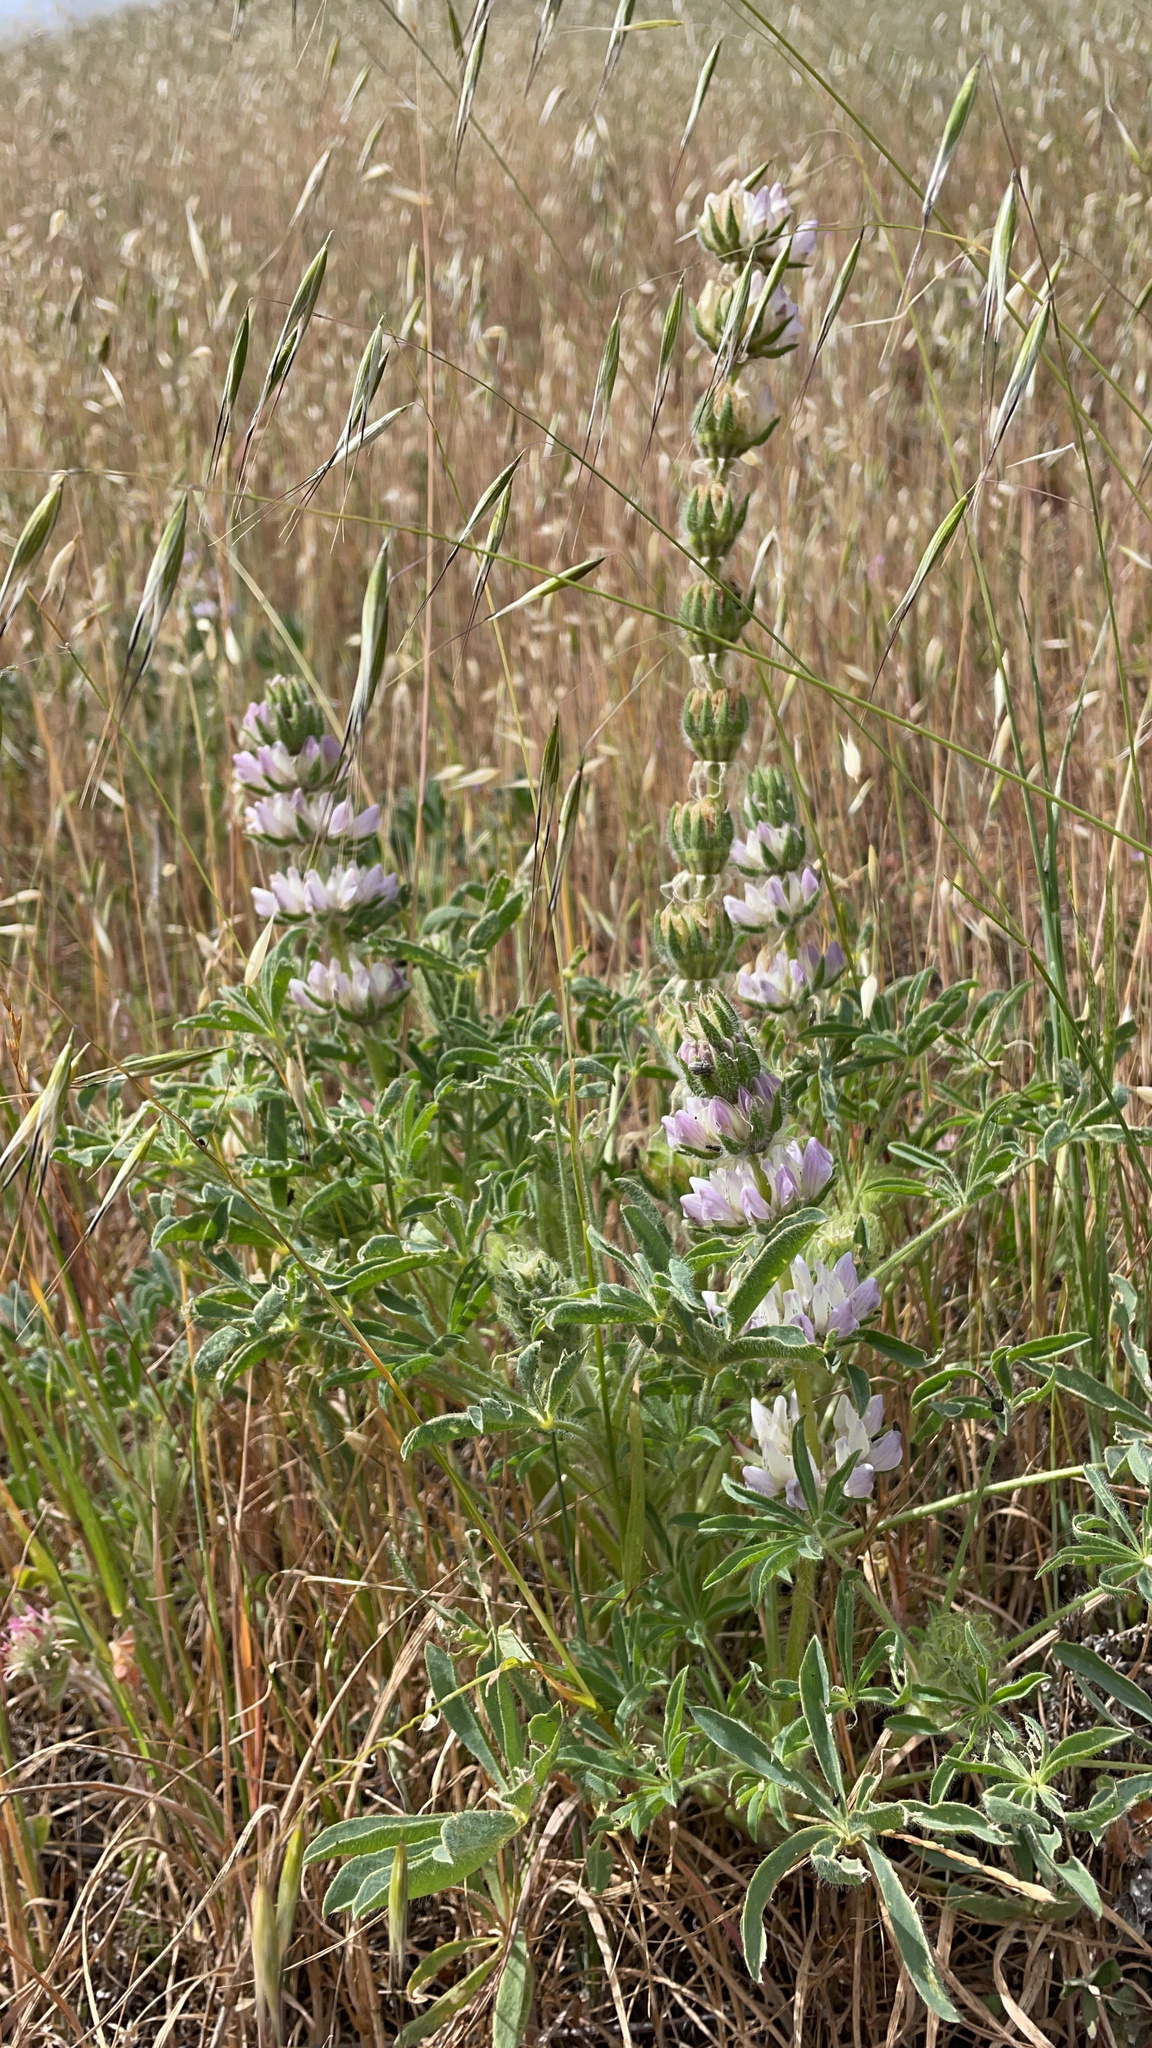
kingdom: Plantae
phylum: Tracheophyta
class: Magnoliopsida
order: Fabales
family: Fabaceae
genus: Lupinus
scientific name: Lupinus microcarpus
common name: Chick lupine
